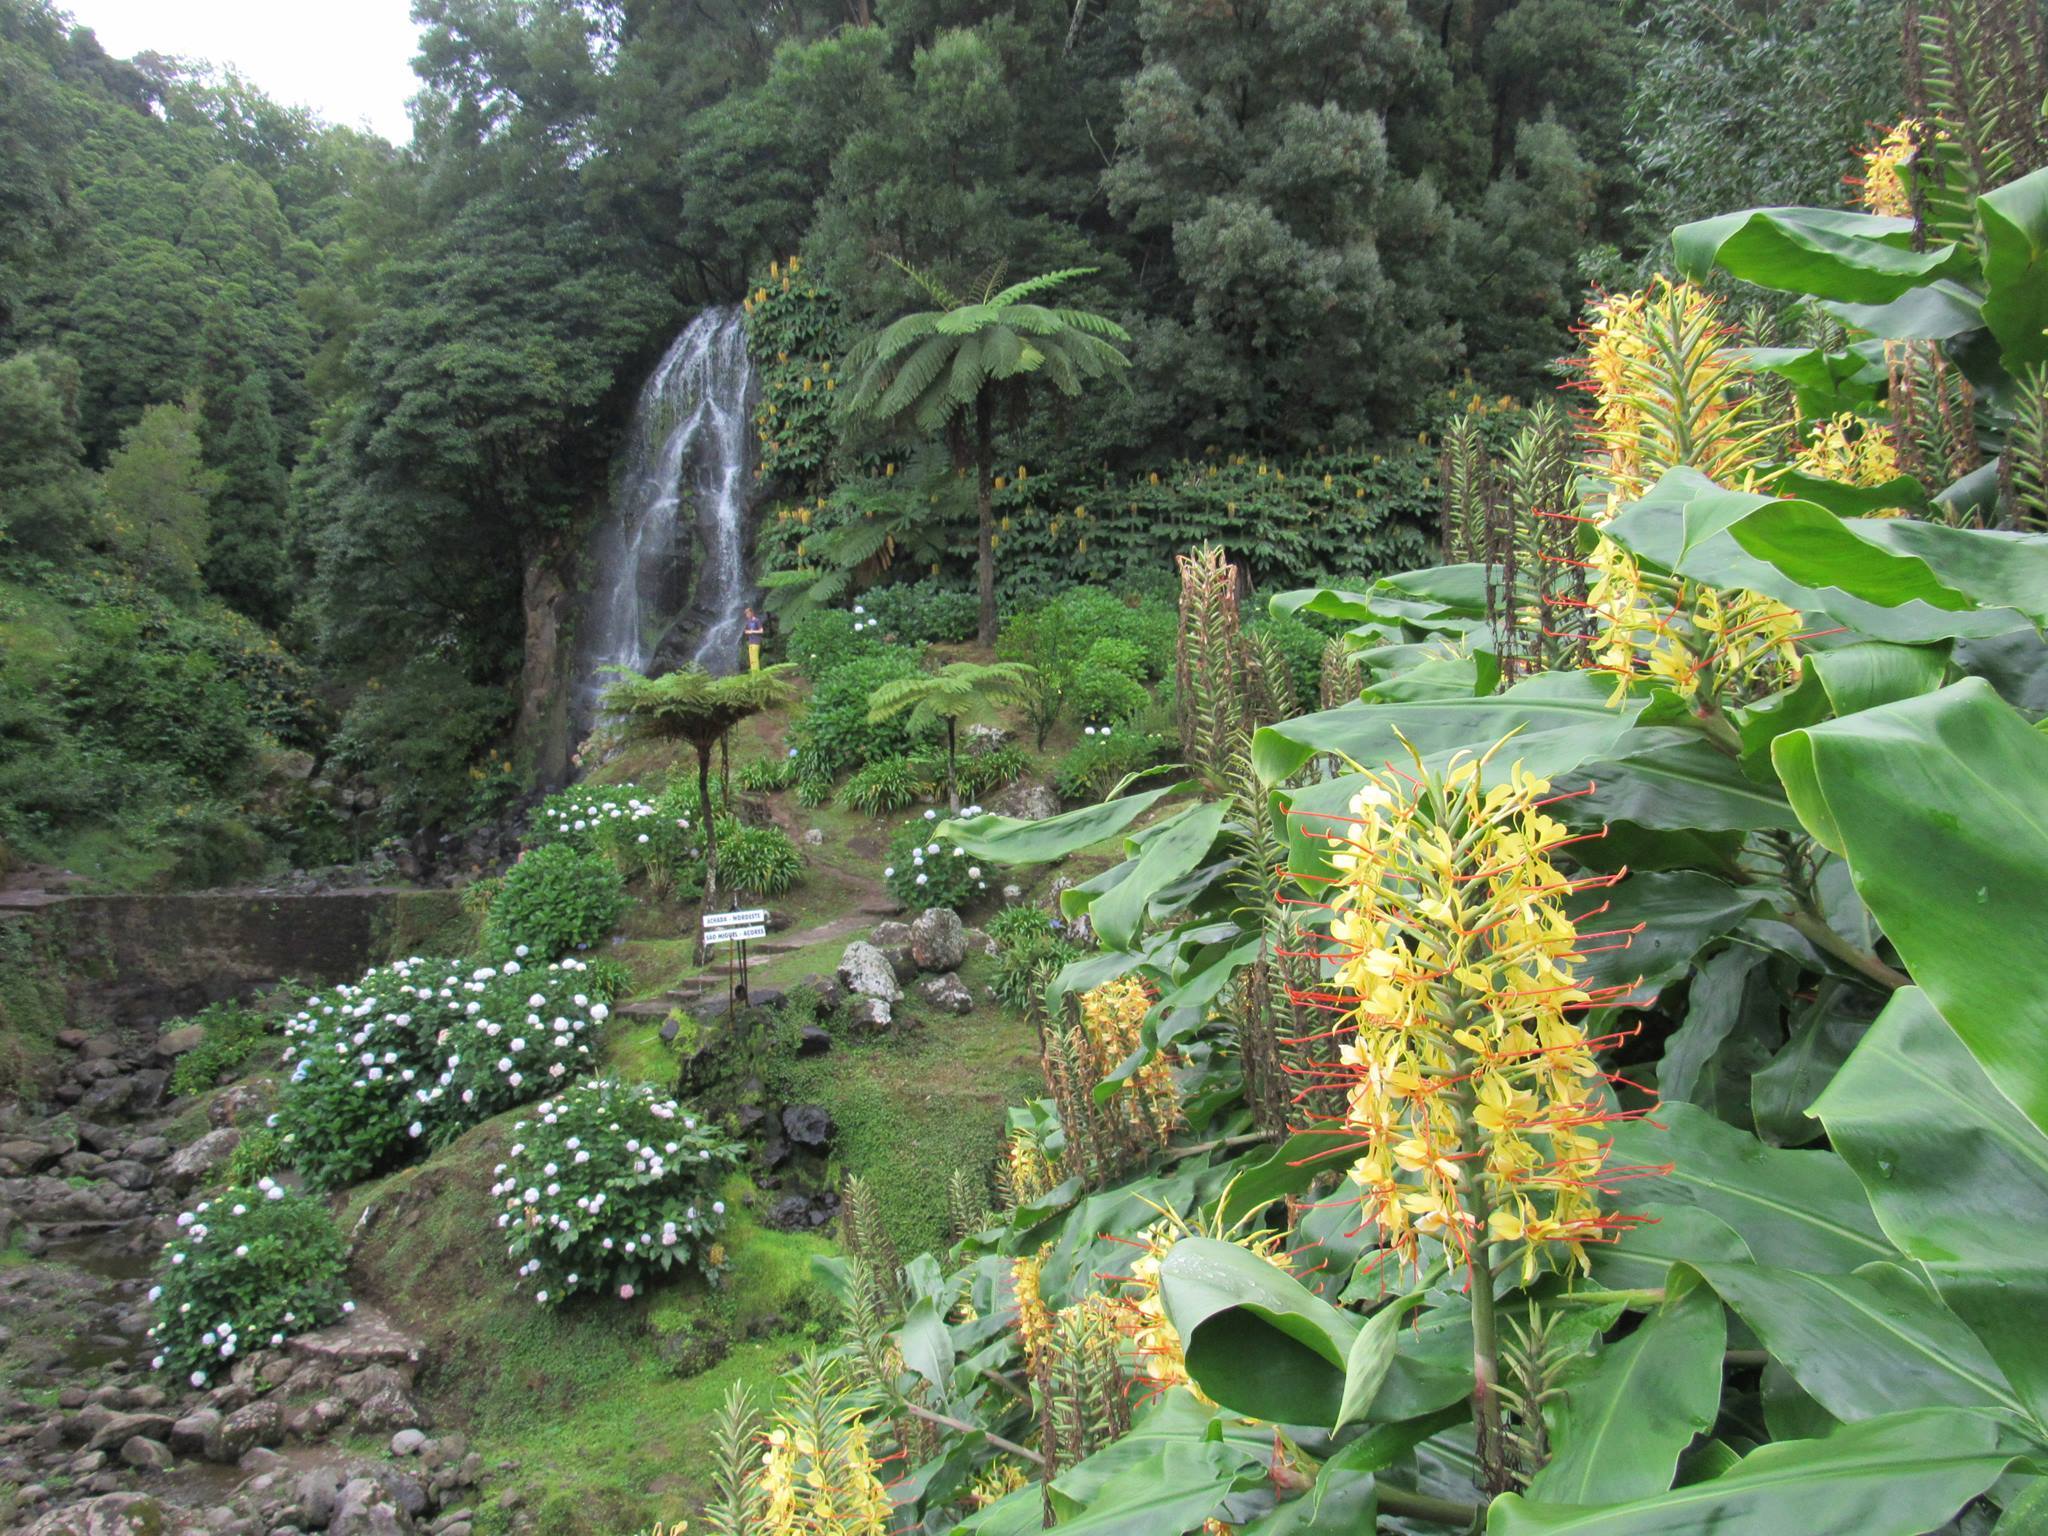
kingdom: Plantae
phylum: Tracheophyta
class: Liliopsida
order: Zingiberales
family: Zingiberaceae
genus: Hedychium
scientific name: Hedychium gardnerianum
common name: Himalayan ginger
